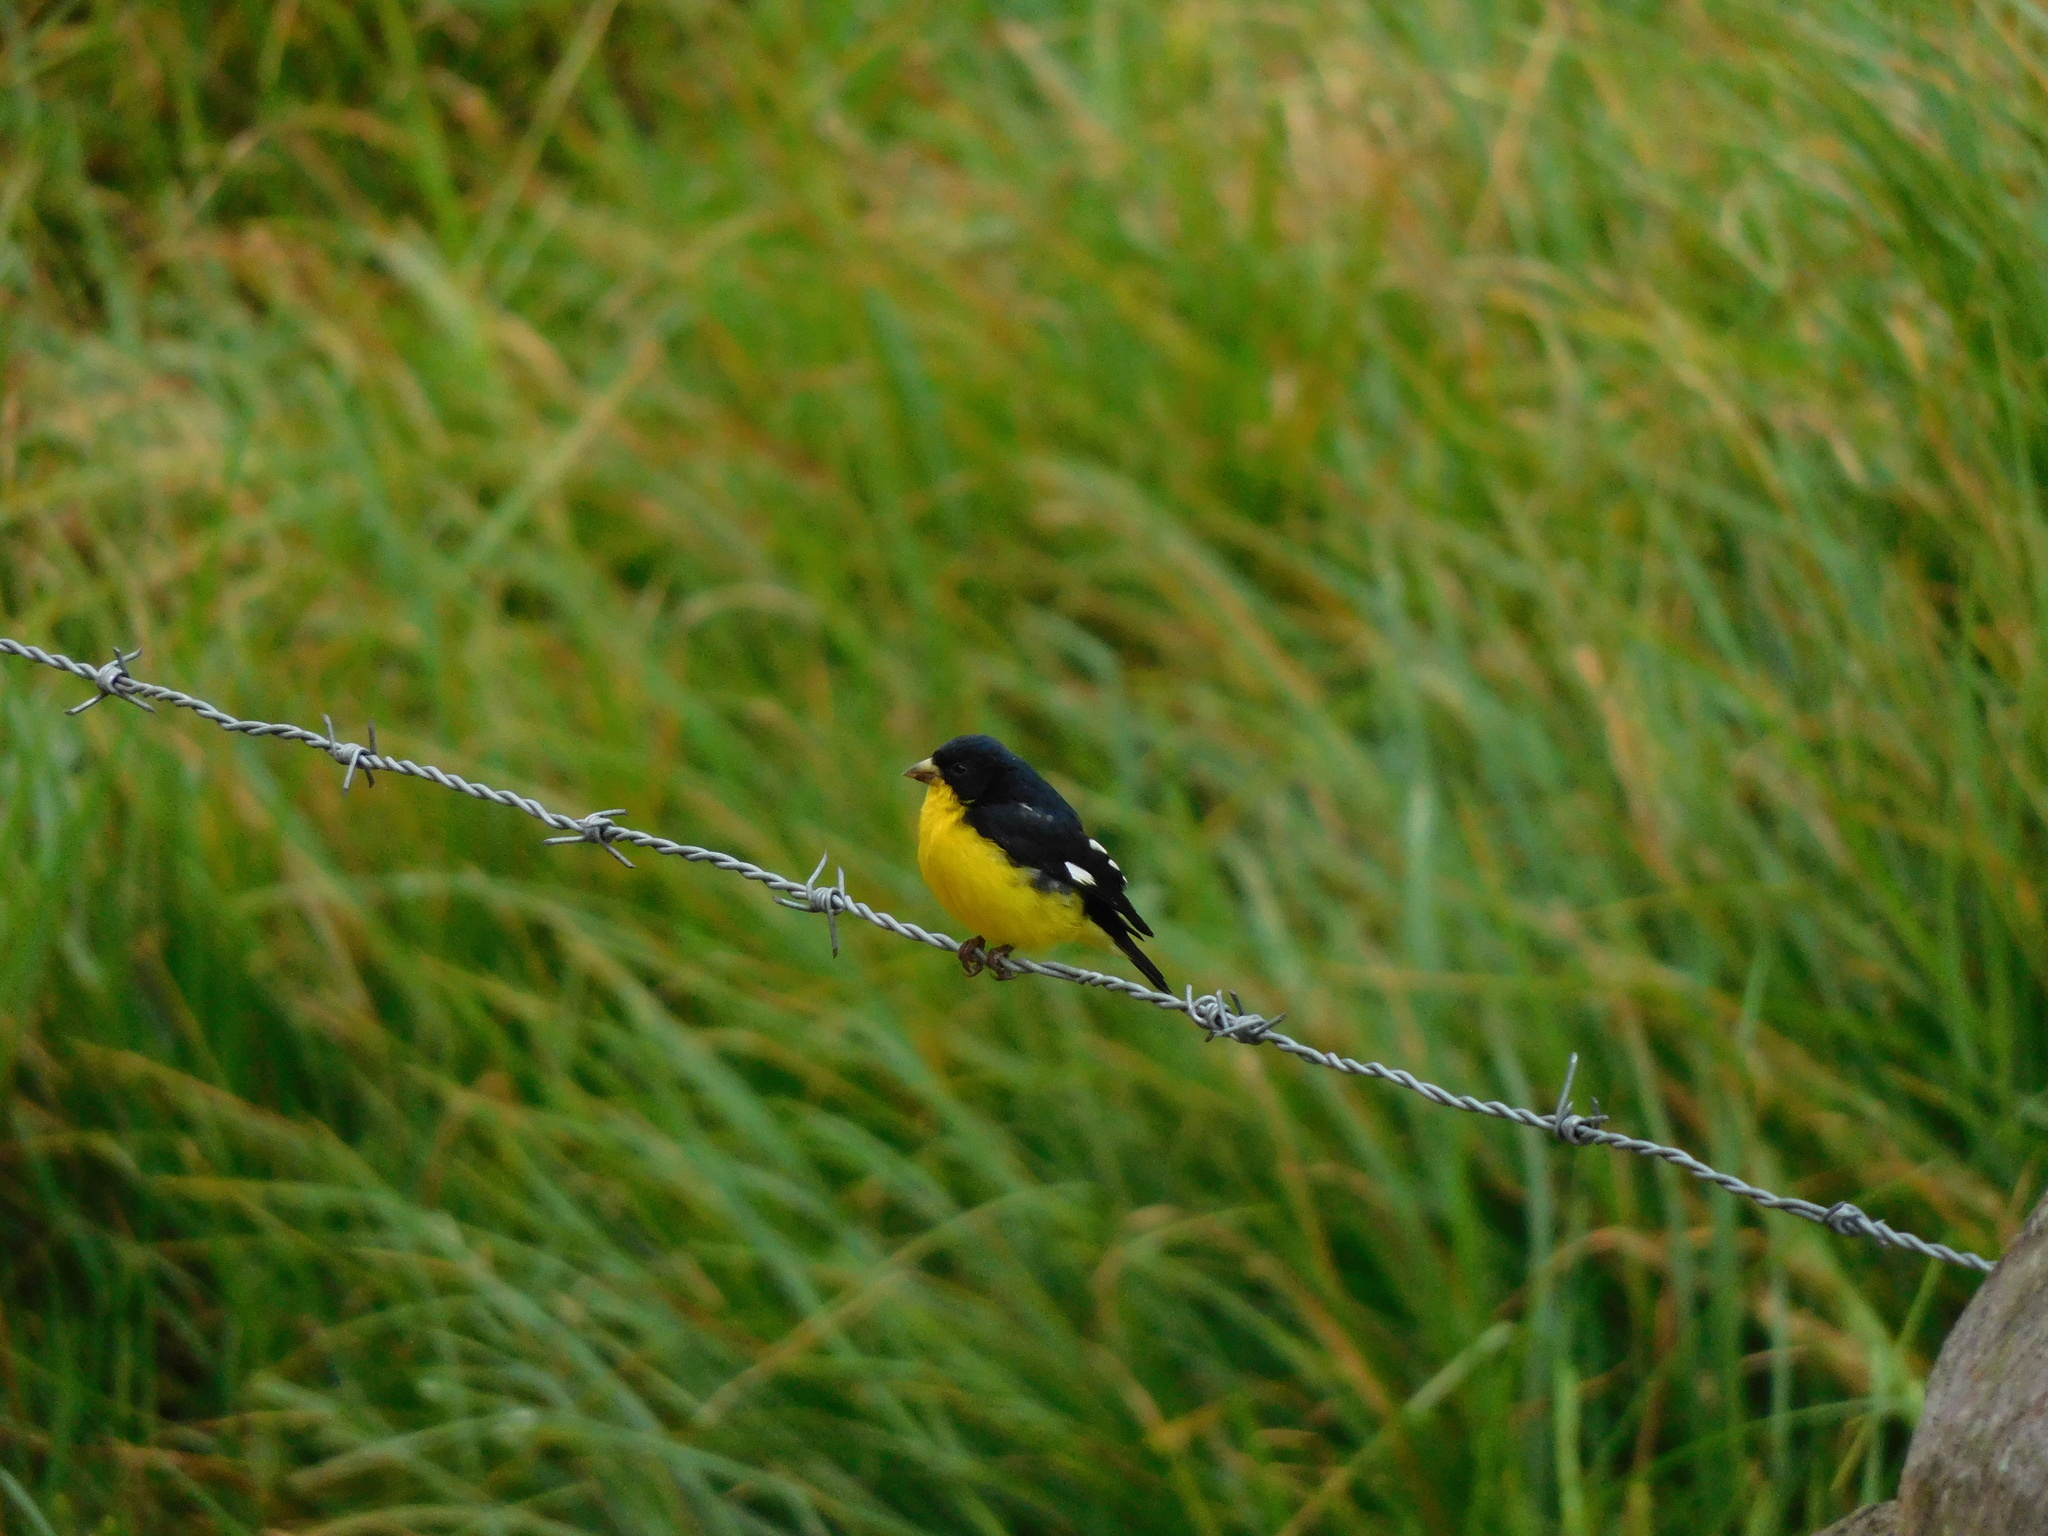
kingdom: Animalia
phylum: Chordata
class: Aves
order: Passeriformes
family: Fringillidae
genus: Spinus
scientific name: Spinus psaltria
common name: Lesser goldfinch
